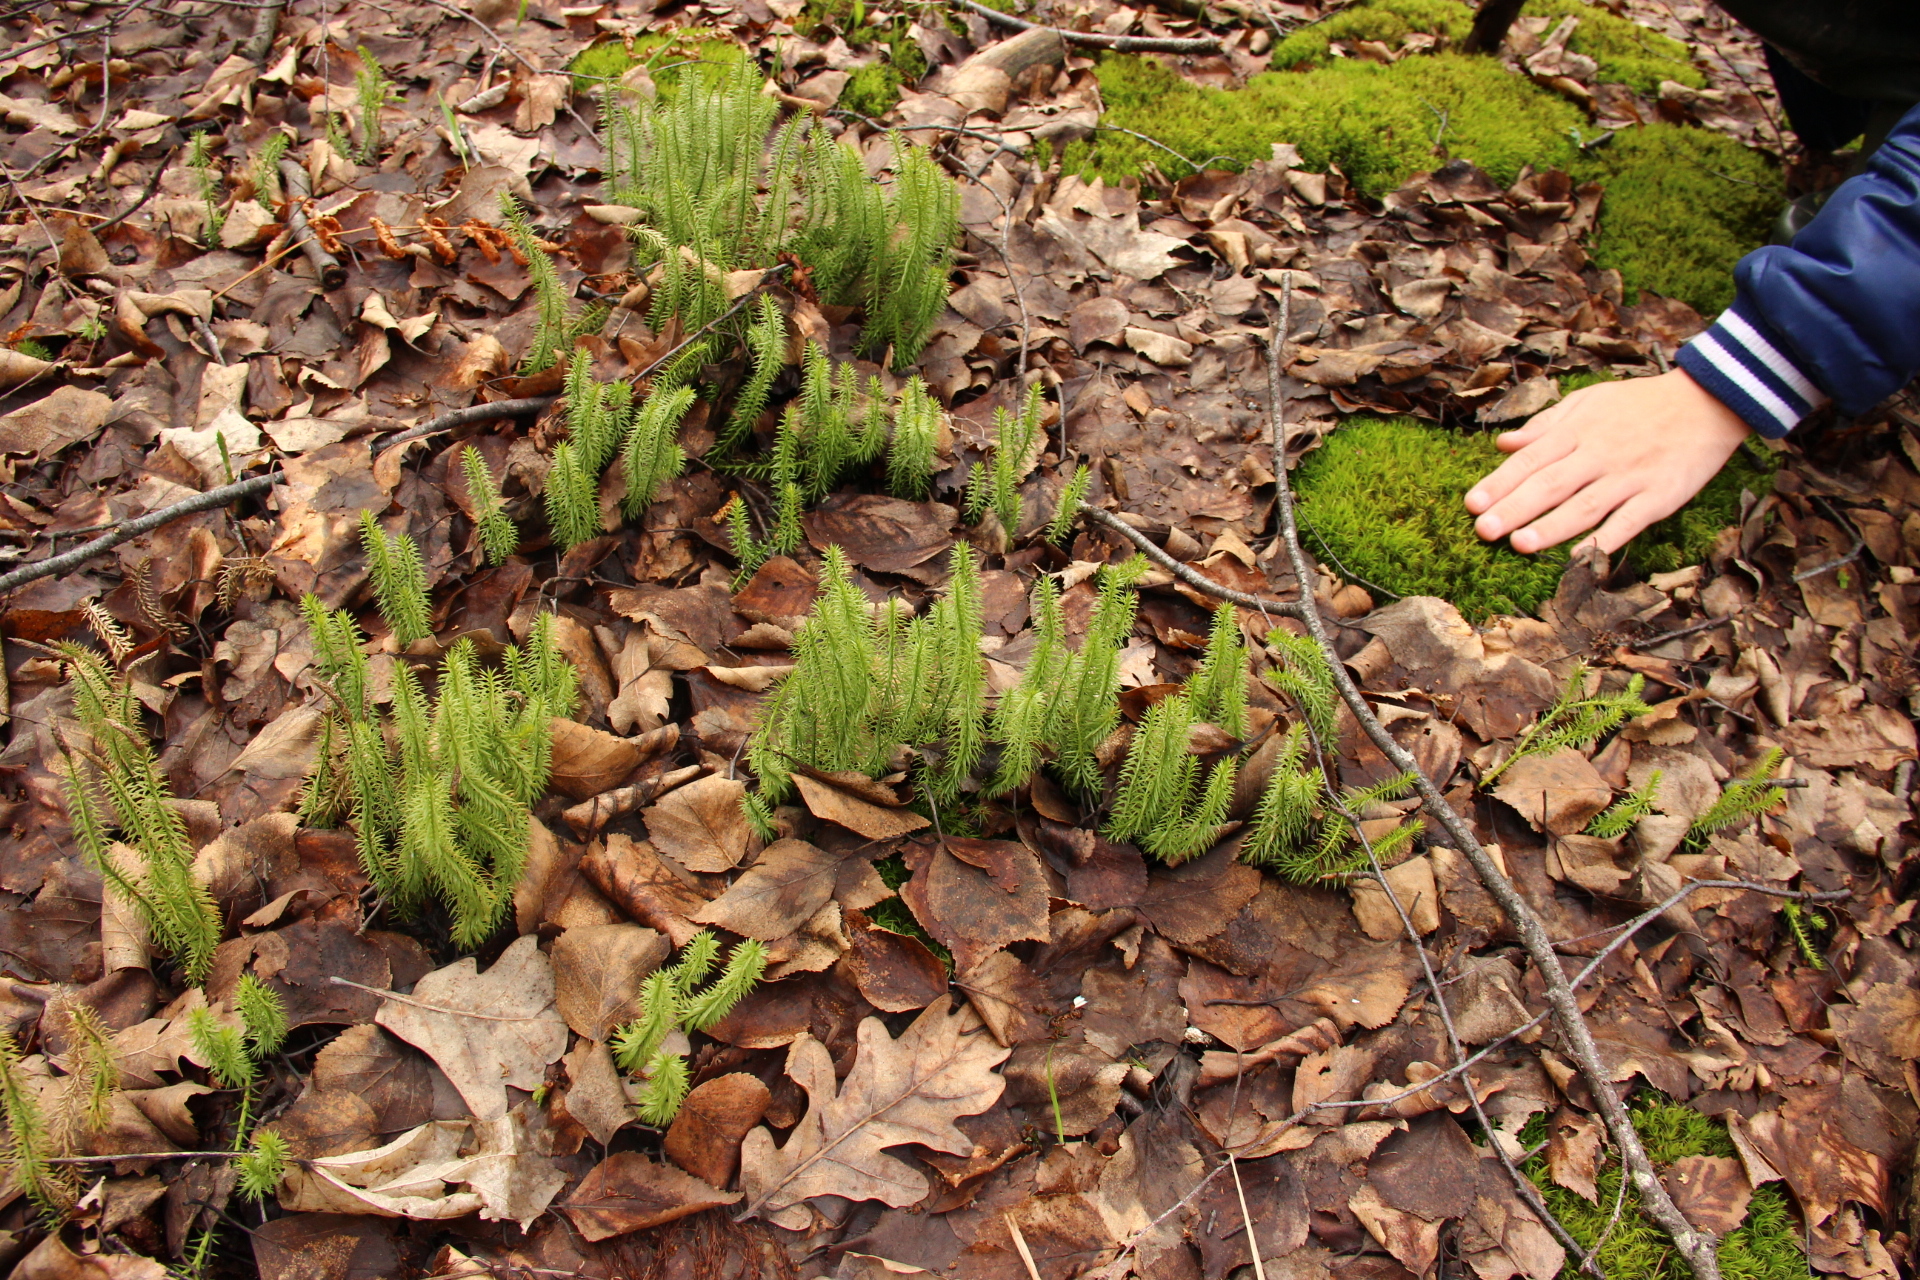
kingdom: Plantae
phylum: Tracheophyta
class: Lycopodiopsida
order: Lycopodiales
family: Lycopodiaceae
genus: Spinulum
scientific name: Spinulum annotinum
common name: Interrupted club-moss
